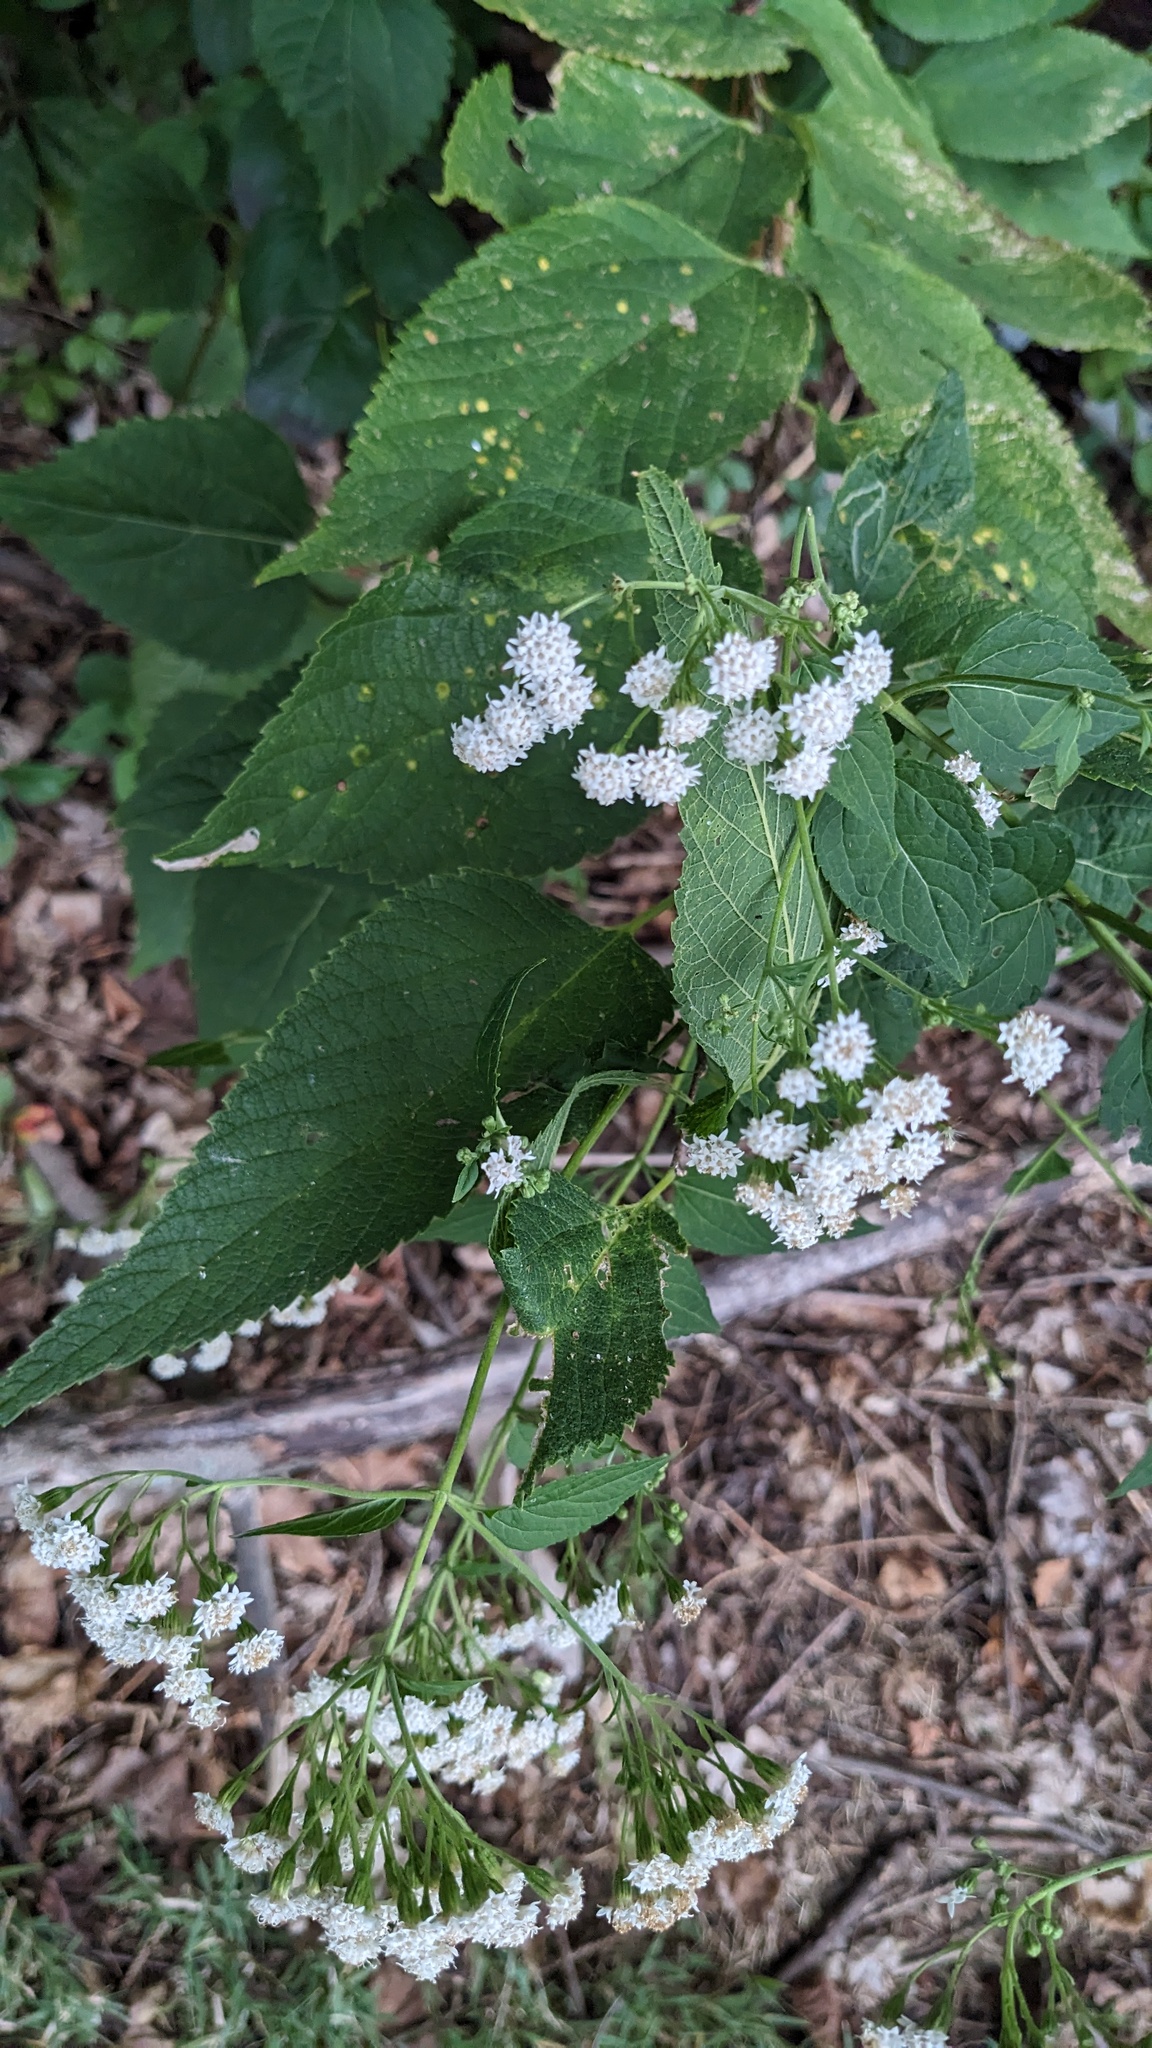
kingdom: Plantae
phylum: Tracheophyta
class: Magnoliopsida
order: Asterales
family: Asteraceae
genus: Ageratina
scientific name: Ageratina altissima
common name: White snakeroot
